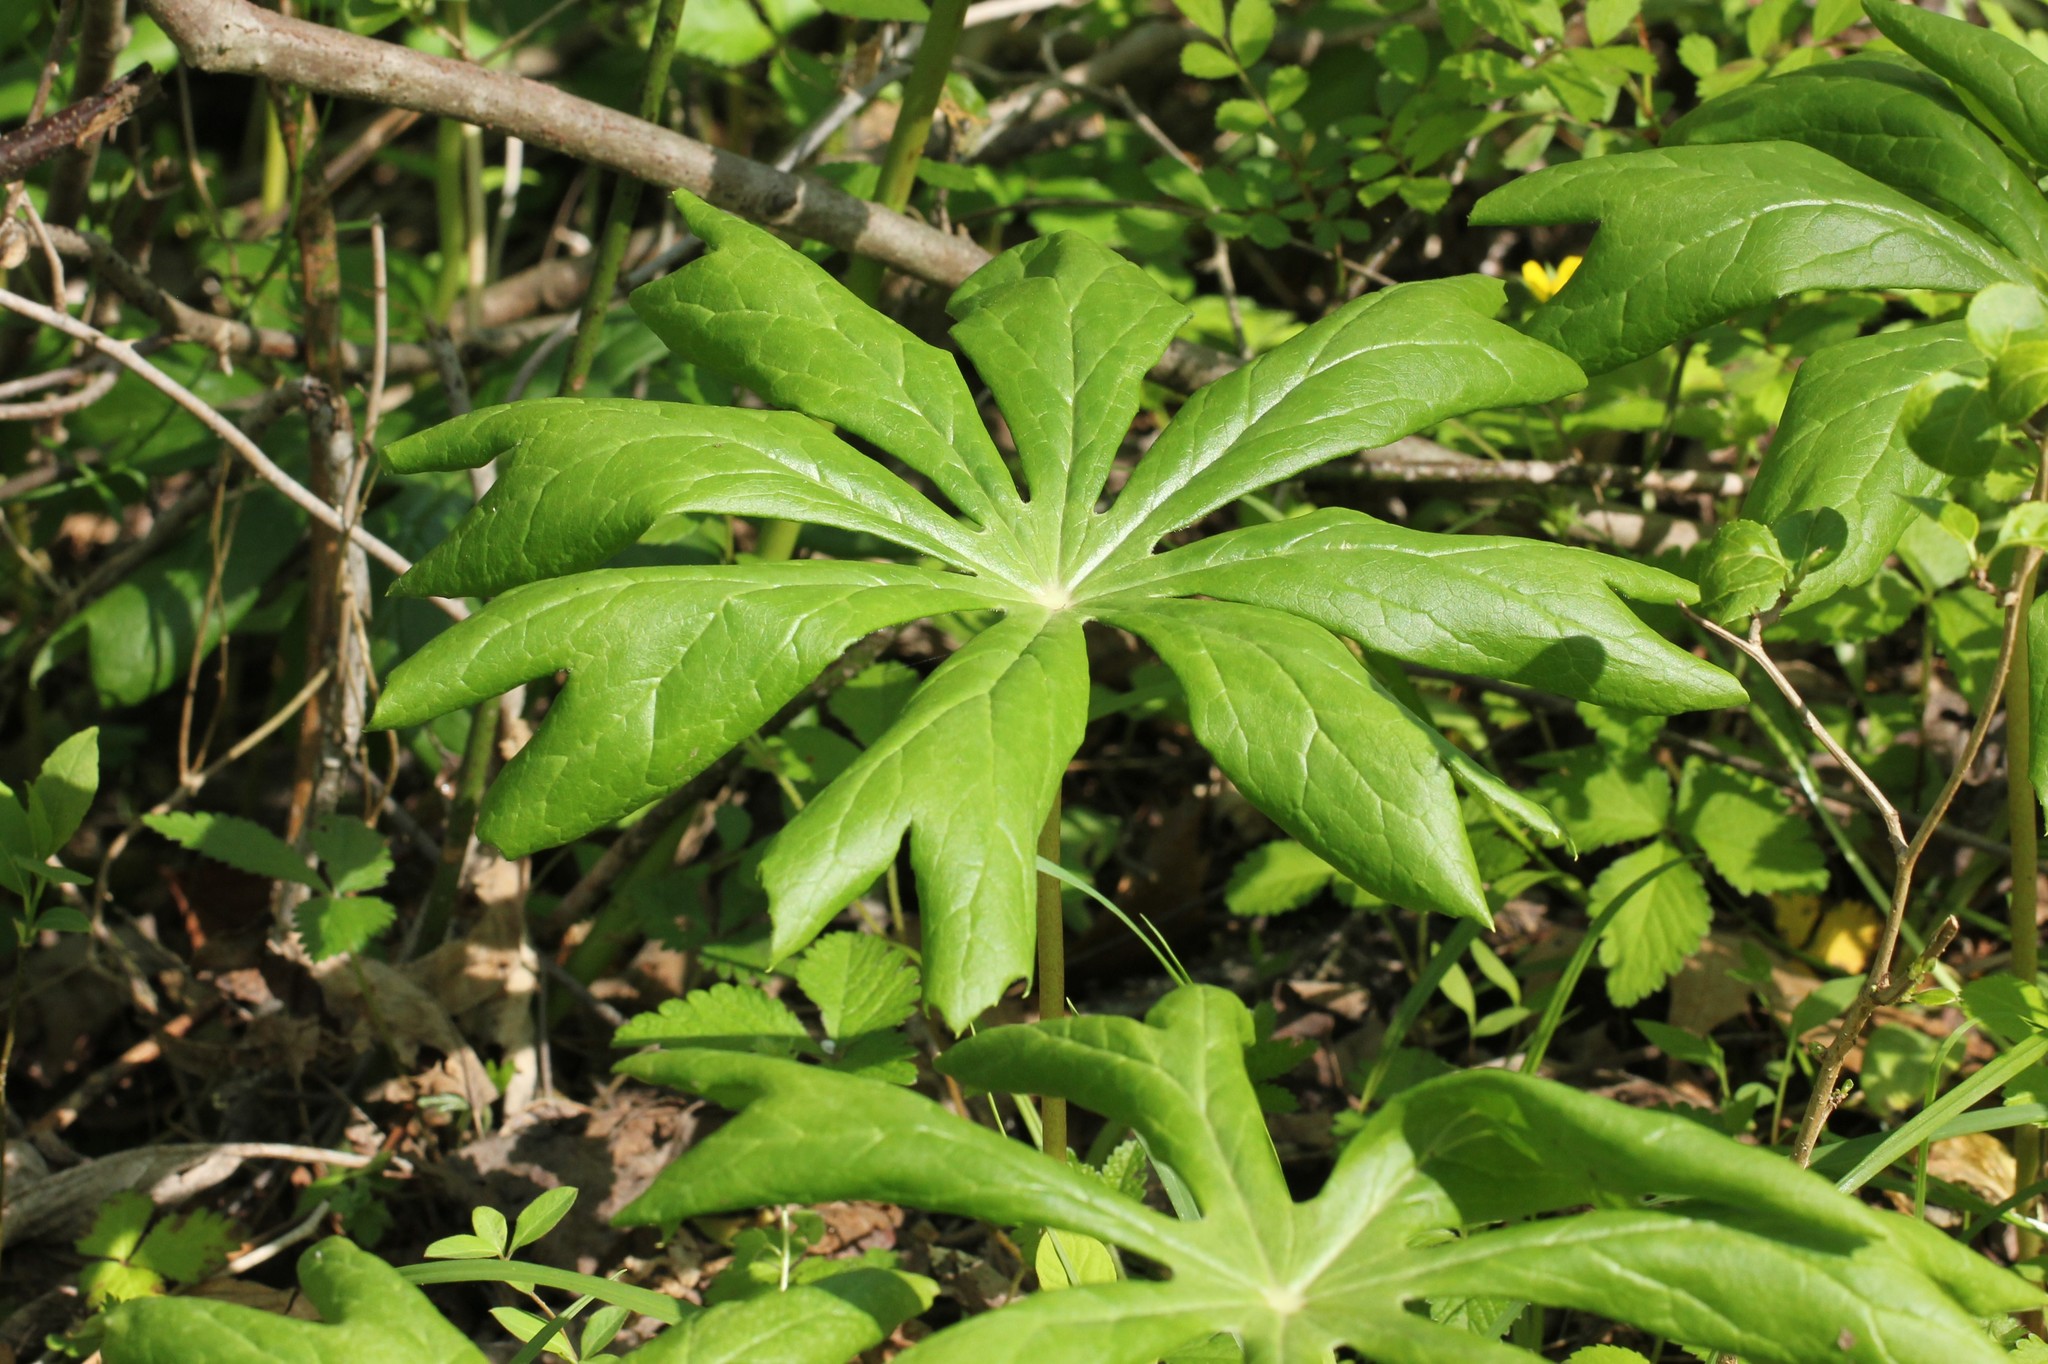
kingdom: Plantae
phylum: Tracheophyta
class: Magnoliopsida
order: Ranunculales
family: Berberidaceae
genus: Podophyllum
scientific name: Podophyllum peltatum
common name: Wild mandrake
